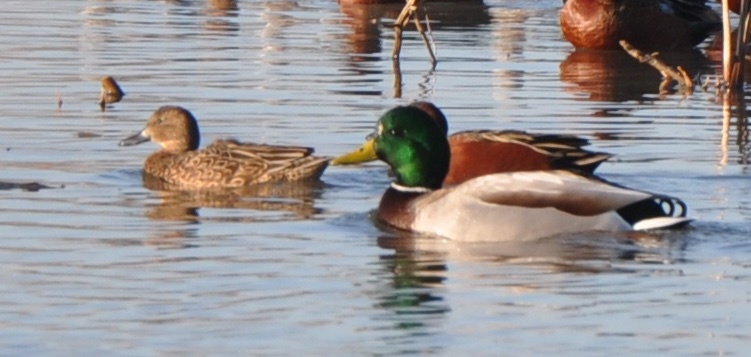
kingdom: Animalia
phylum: Chordata
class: Aves
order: Anseriformes
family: Anatidae
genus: Anas
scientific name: Anas platyrhynchos
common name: Mallard
